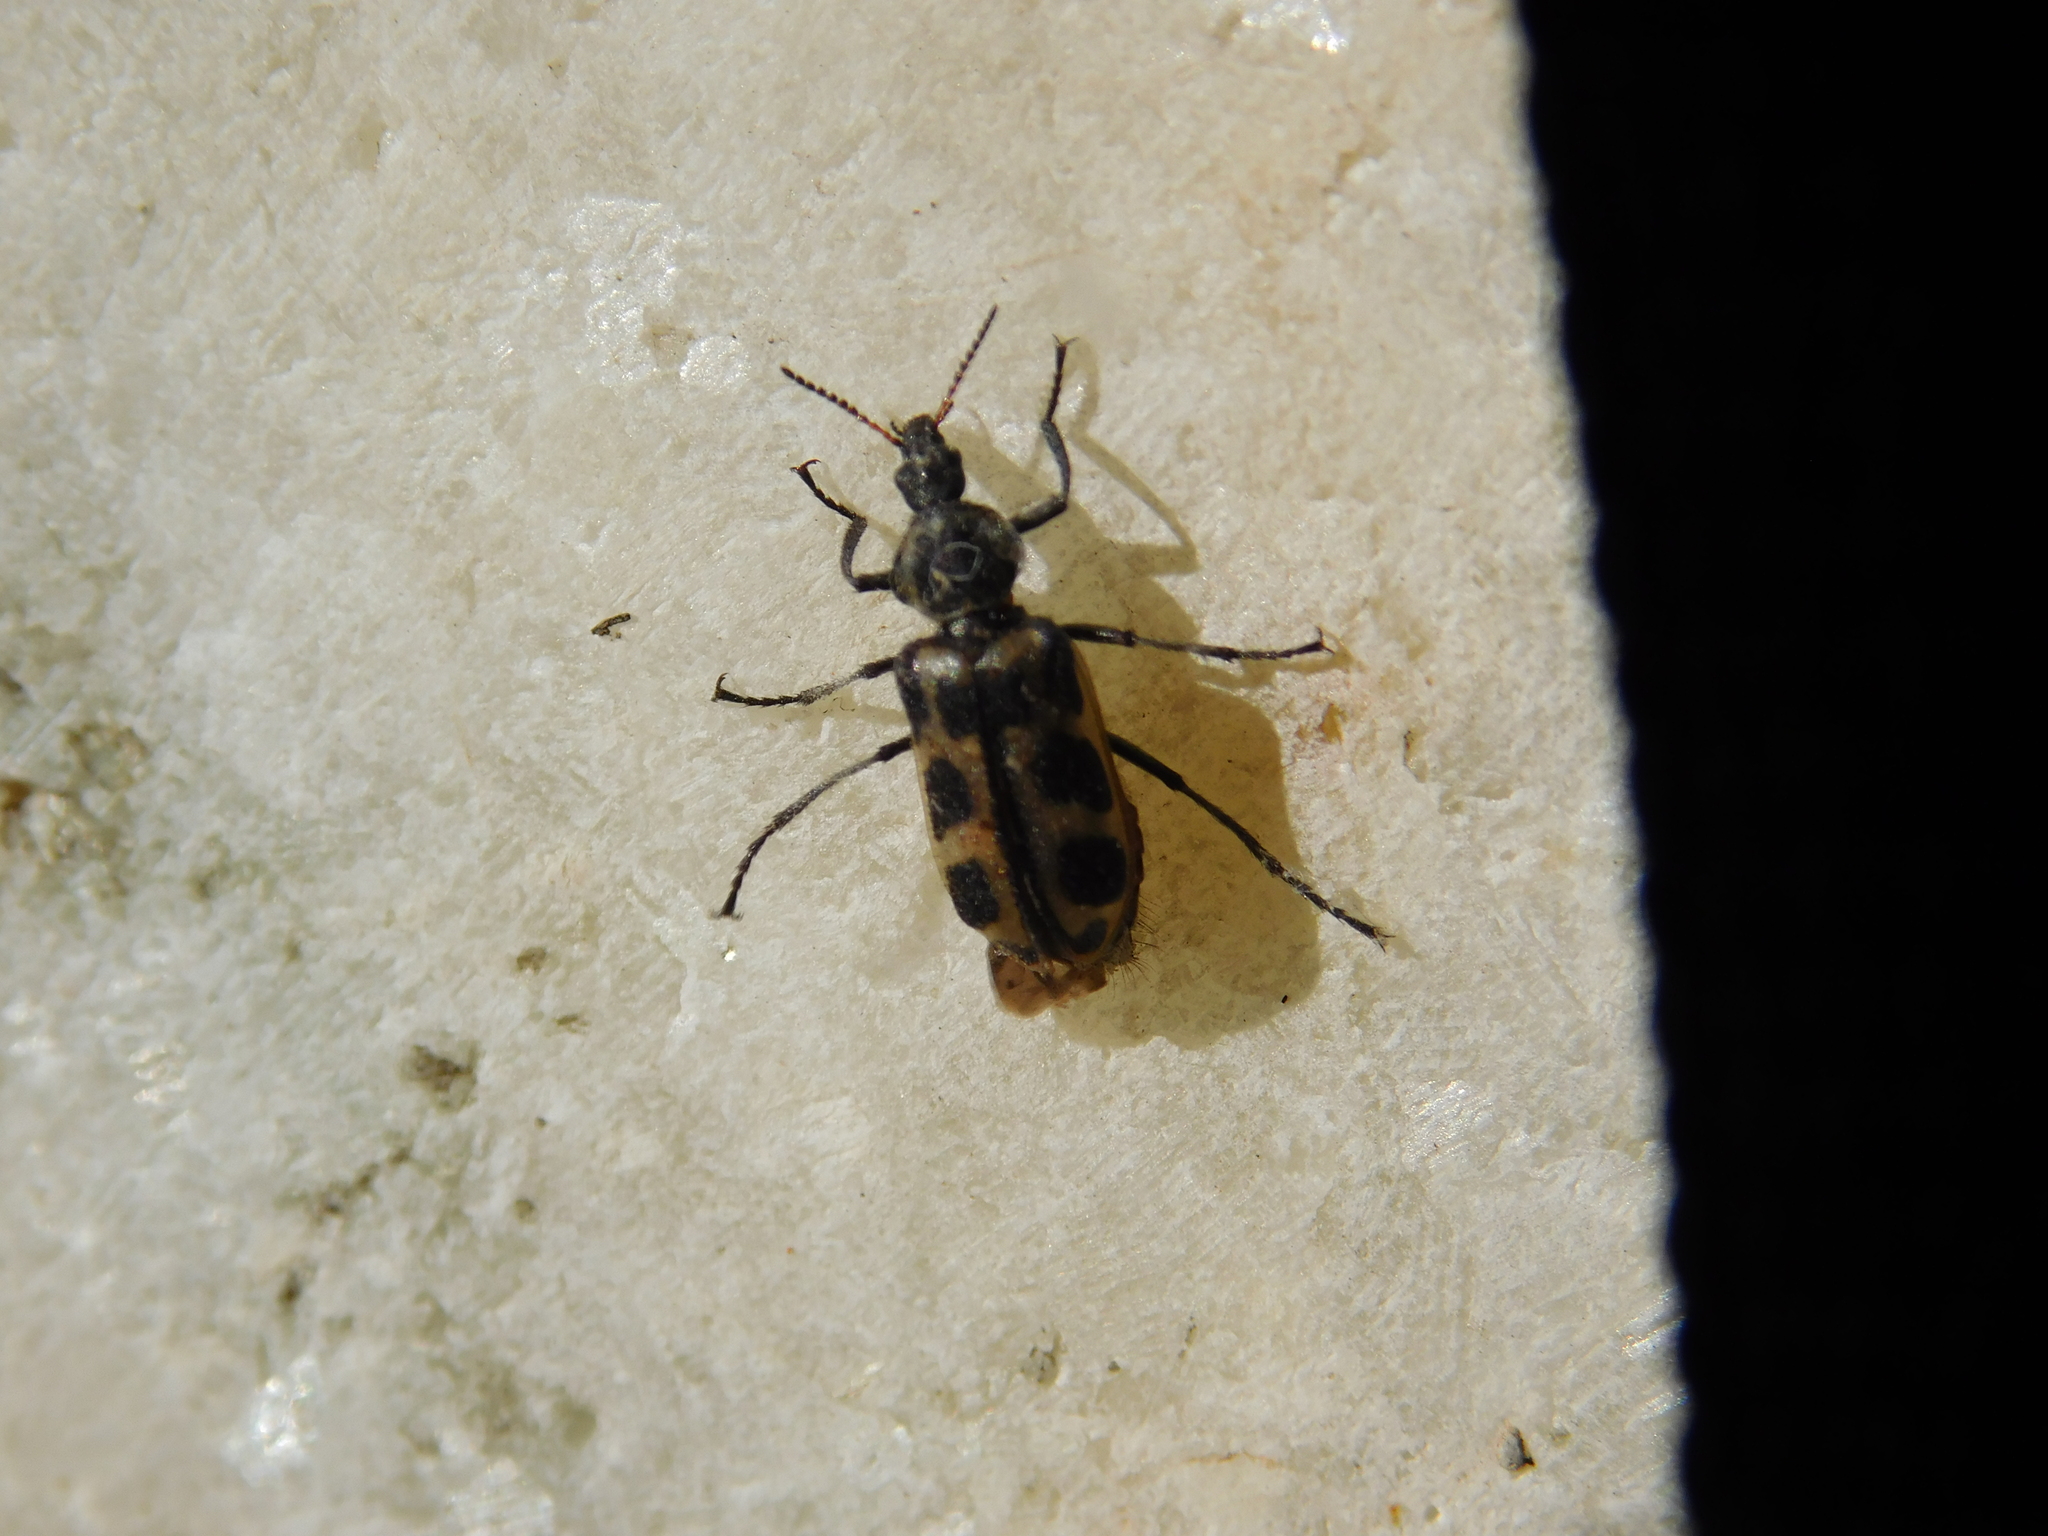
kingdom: Animalia
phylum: Arthropoda
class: Insecta
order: Coleoptera
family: Melyridae
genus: Astylus
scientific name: Astylus atromaculatus
